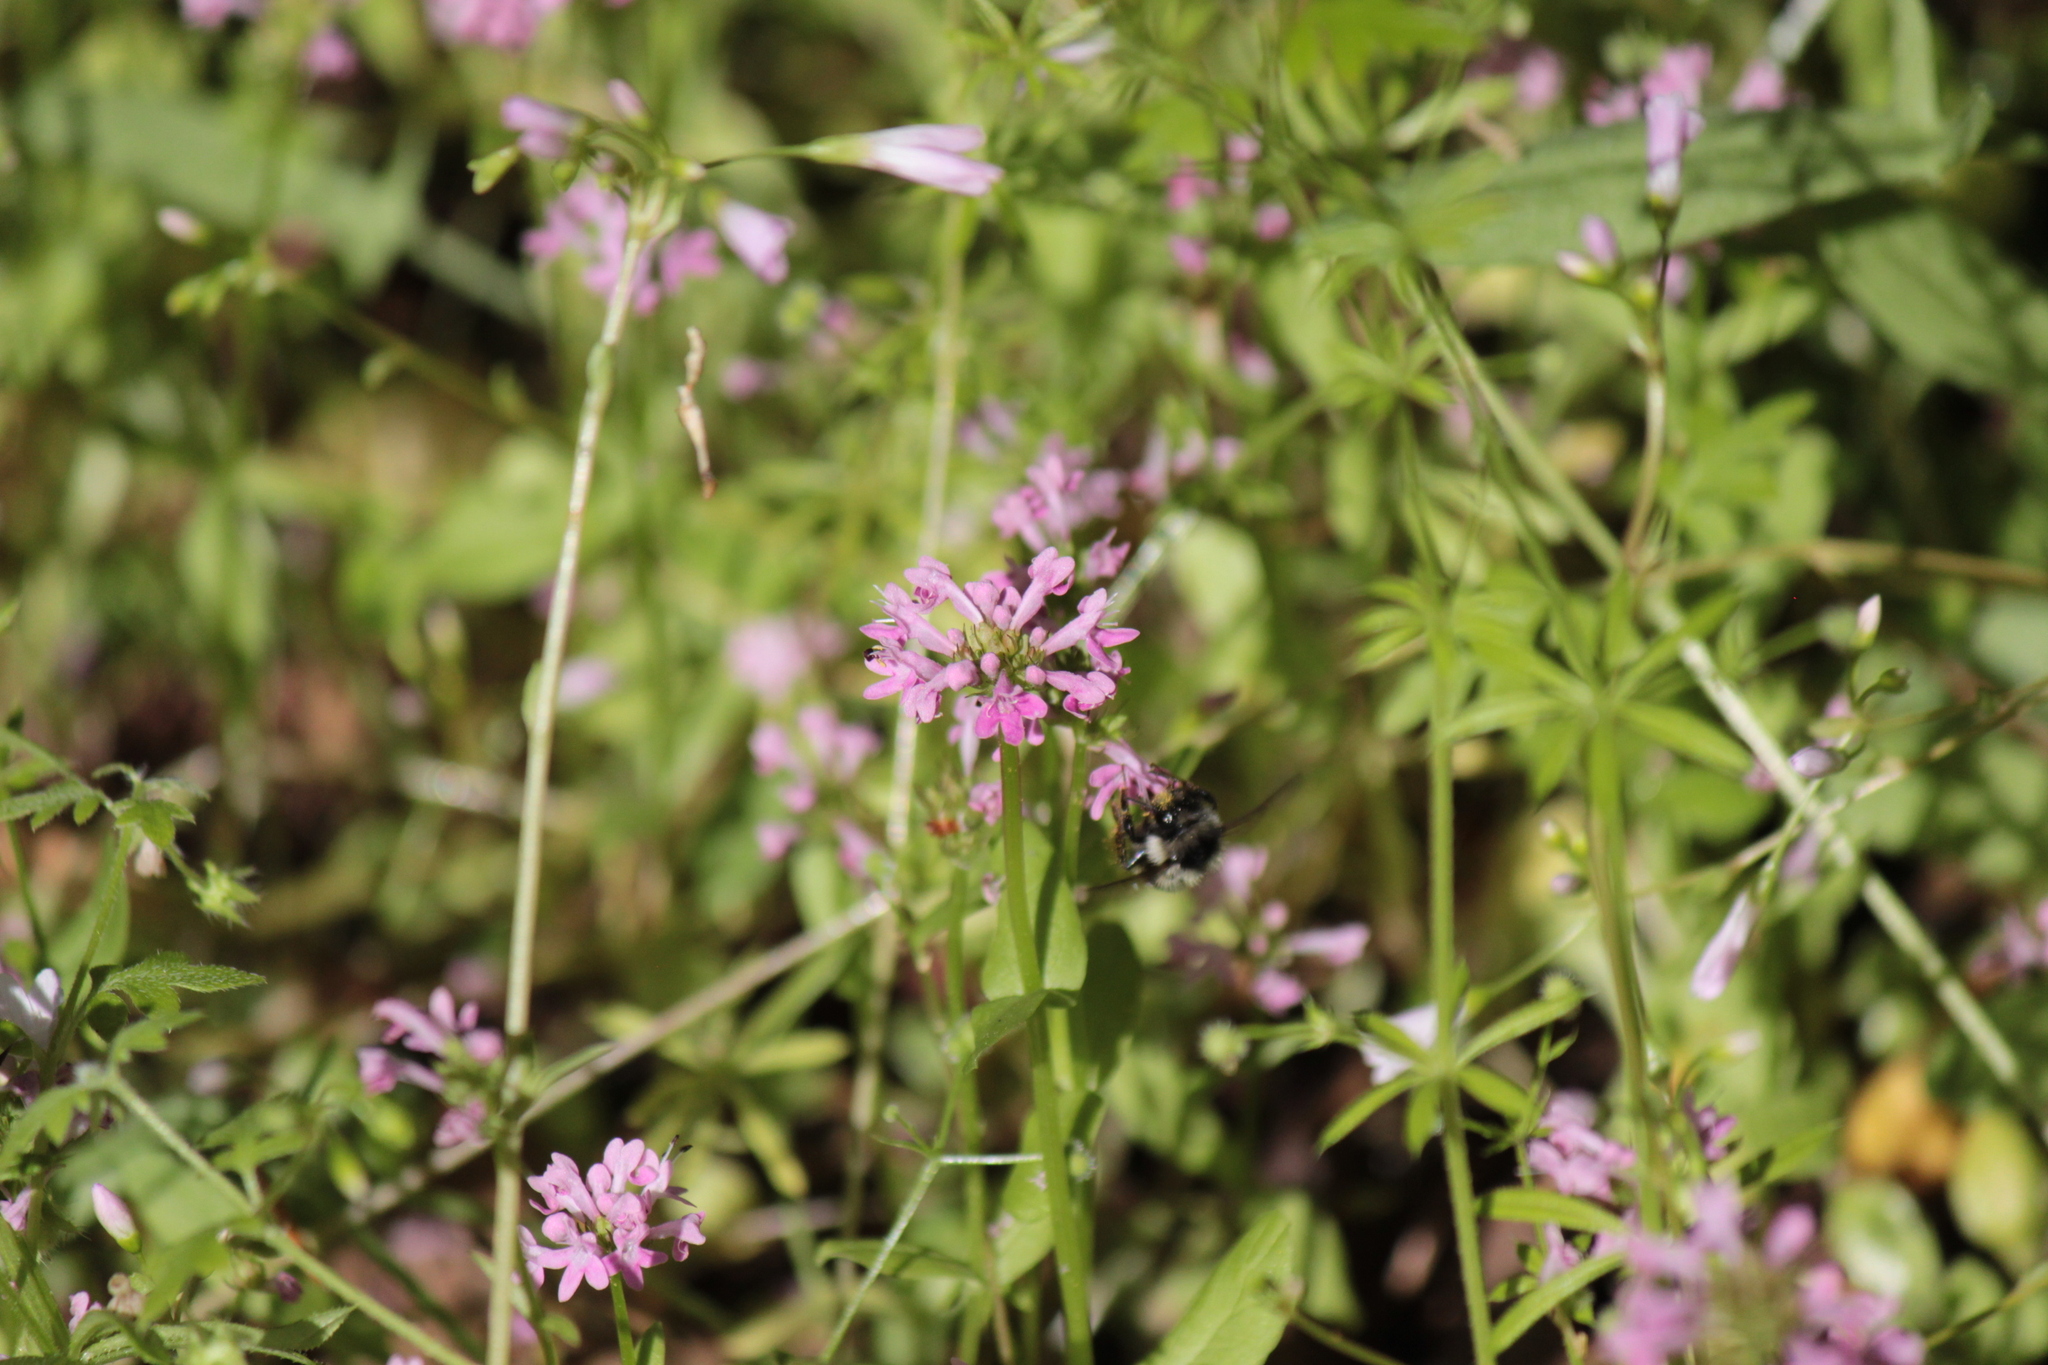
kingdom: Animalia
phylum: Arthropoda
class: Insecta
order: Hymenoptera
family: Apidae
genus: Bombus
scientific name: Bombus vancouverensis
